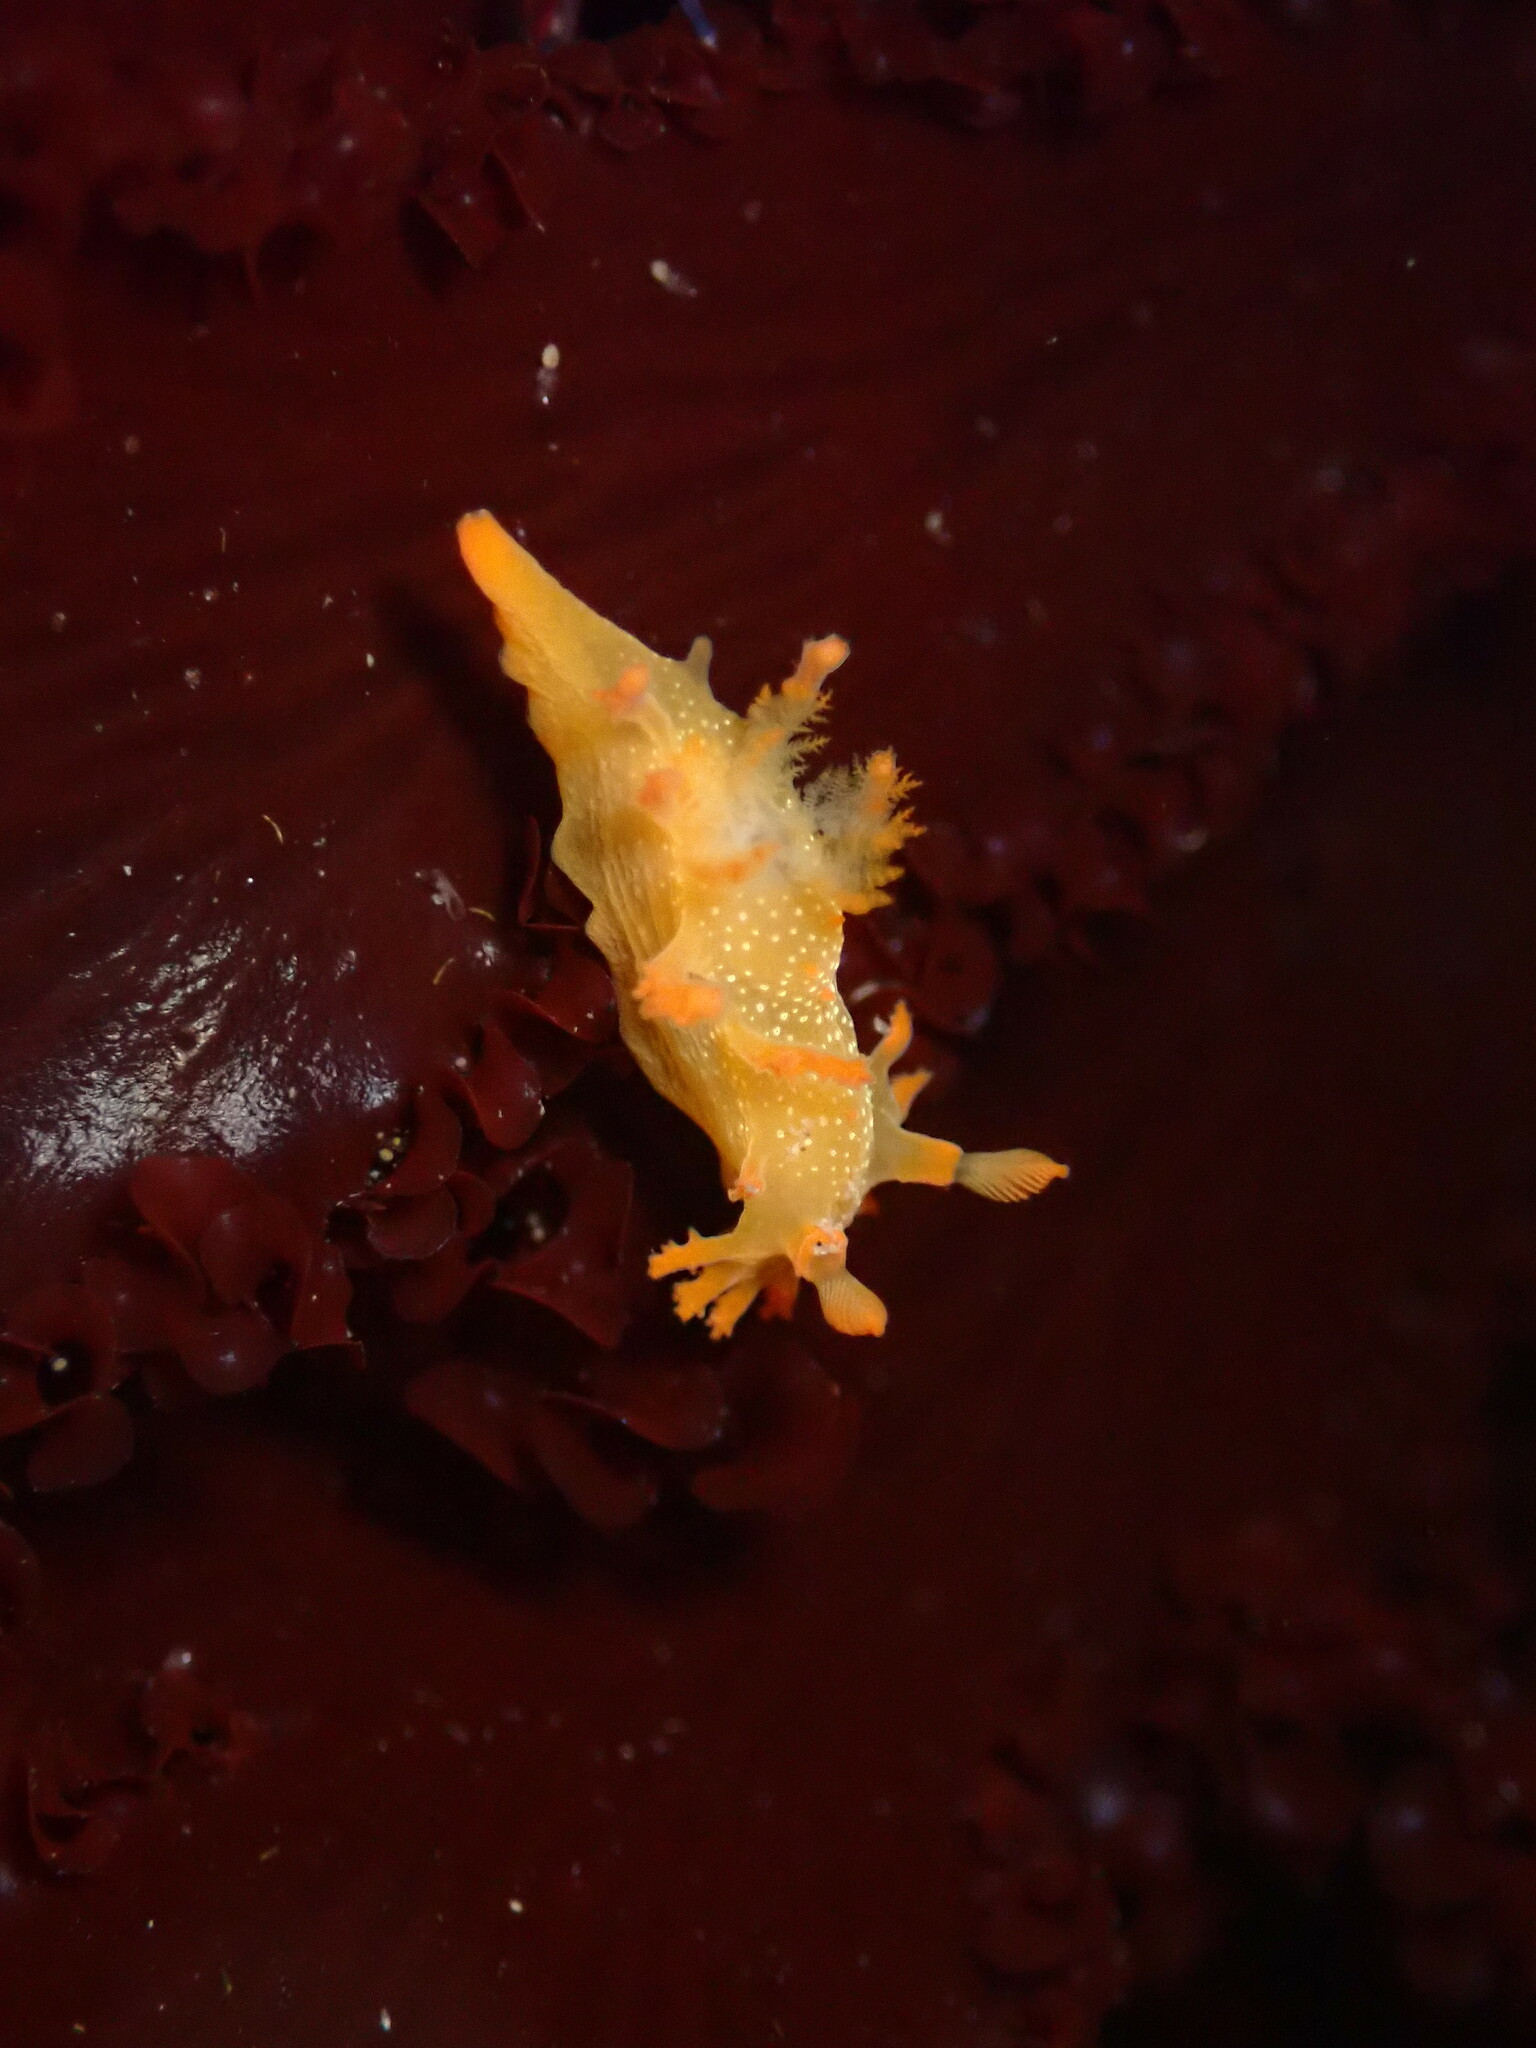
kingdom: Animalia
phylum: Mollusca
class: Gastropoda
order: Nudibranchia
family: Polyceridae
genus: Triopha
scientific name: Triopha maculata
